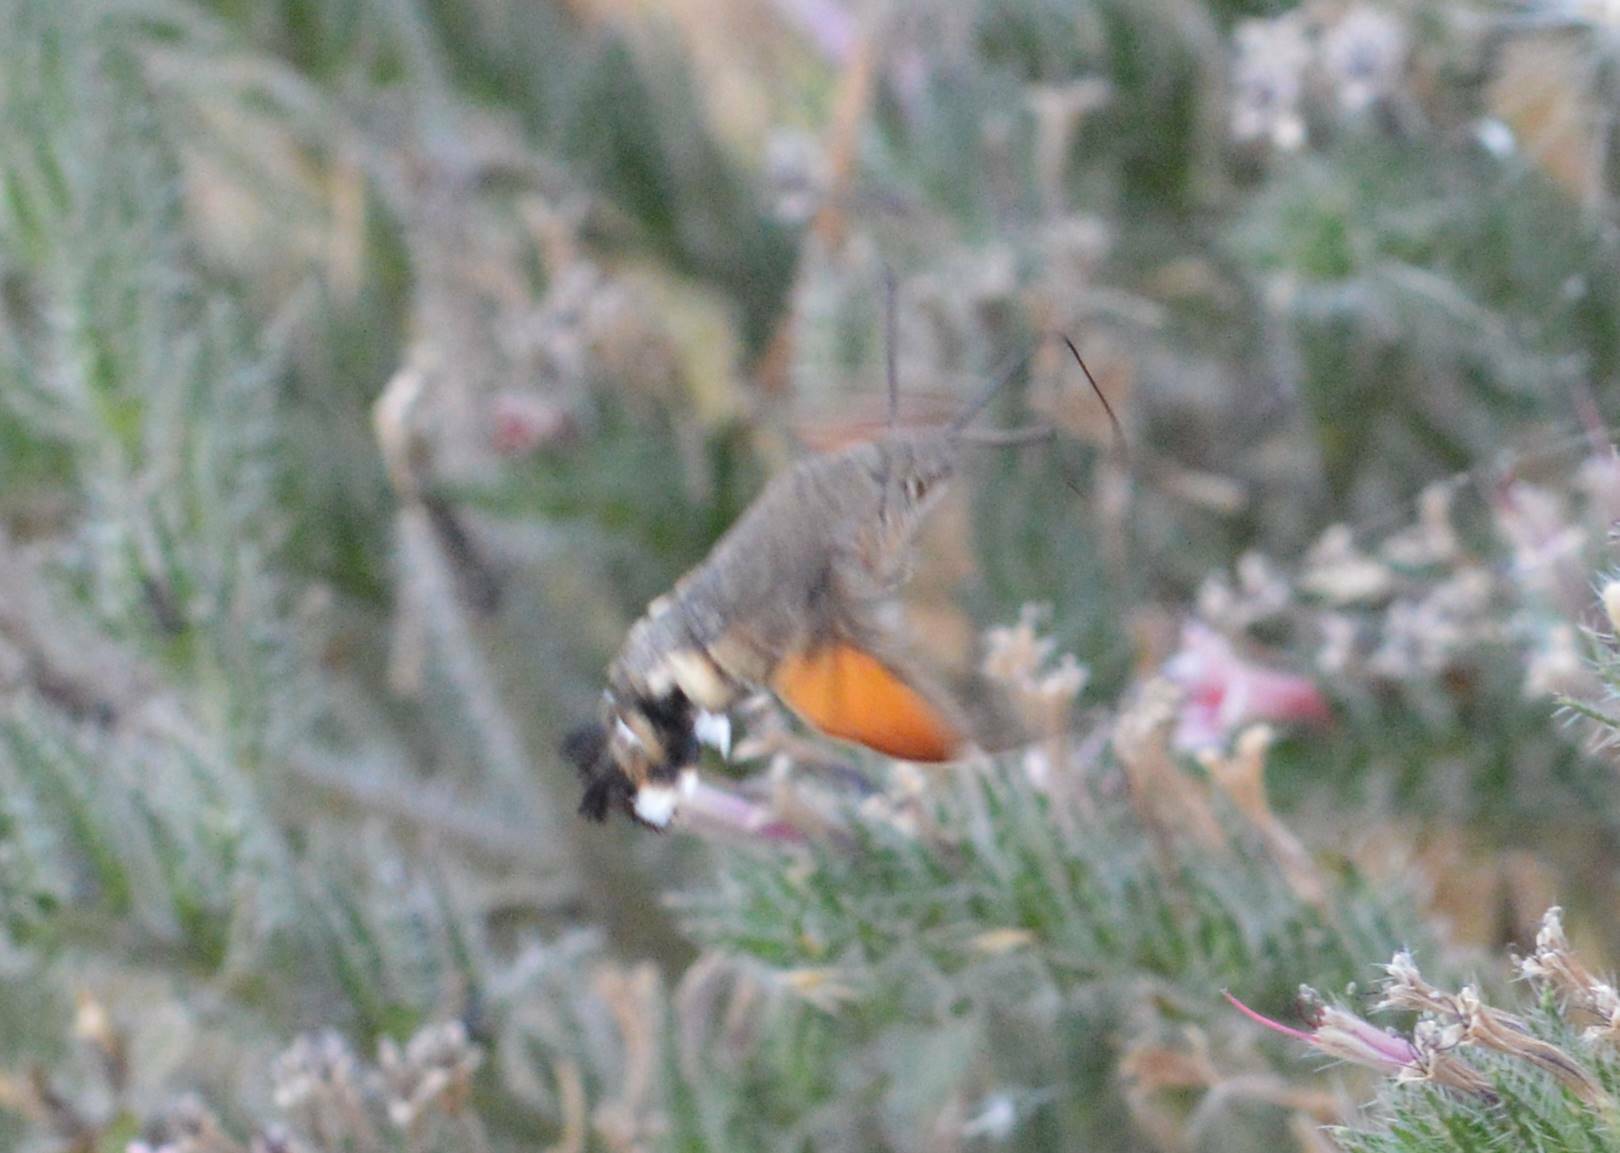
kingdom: Animalia
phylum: Arthropoda
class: Insecta
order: Lepidoptera
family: Sphingidae
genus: Macroglossum
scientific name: Macroglossum stellatarum
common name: Humming-bird hawk-moth
